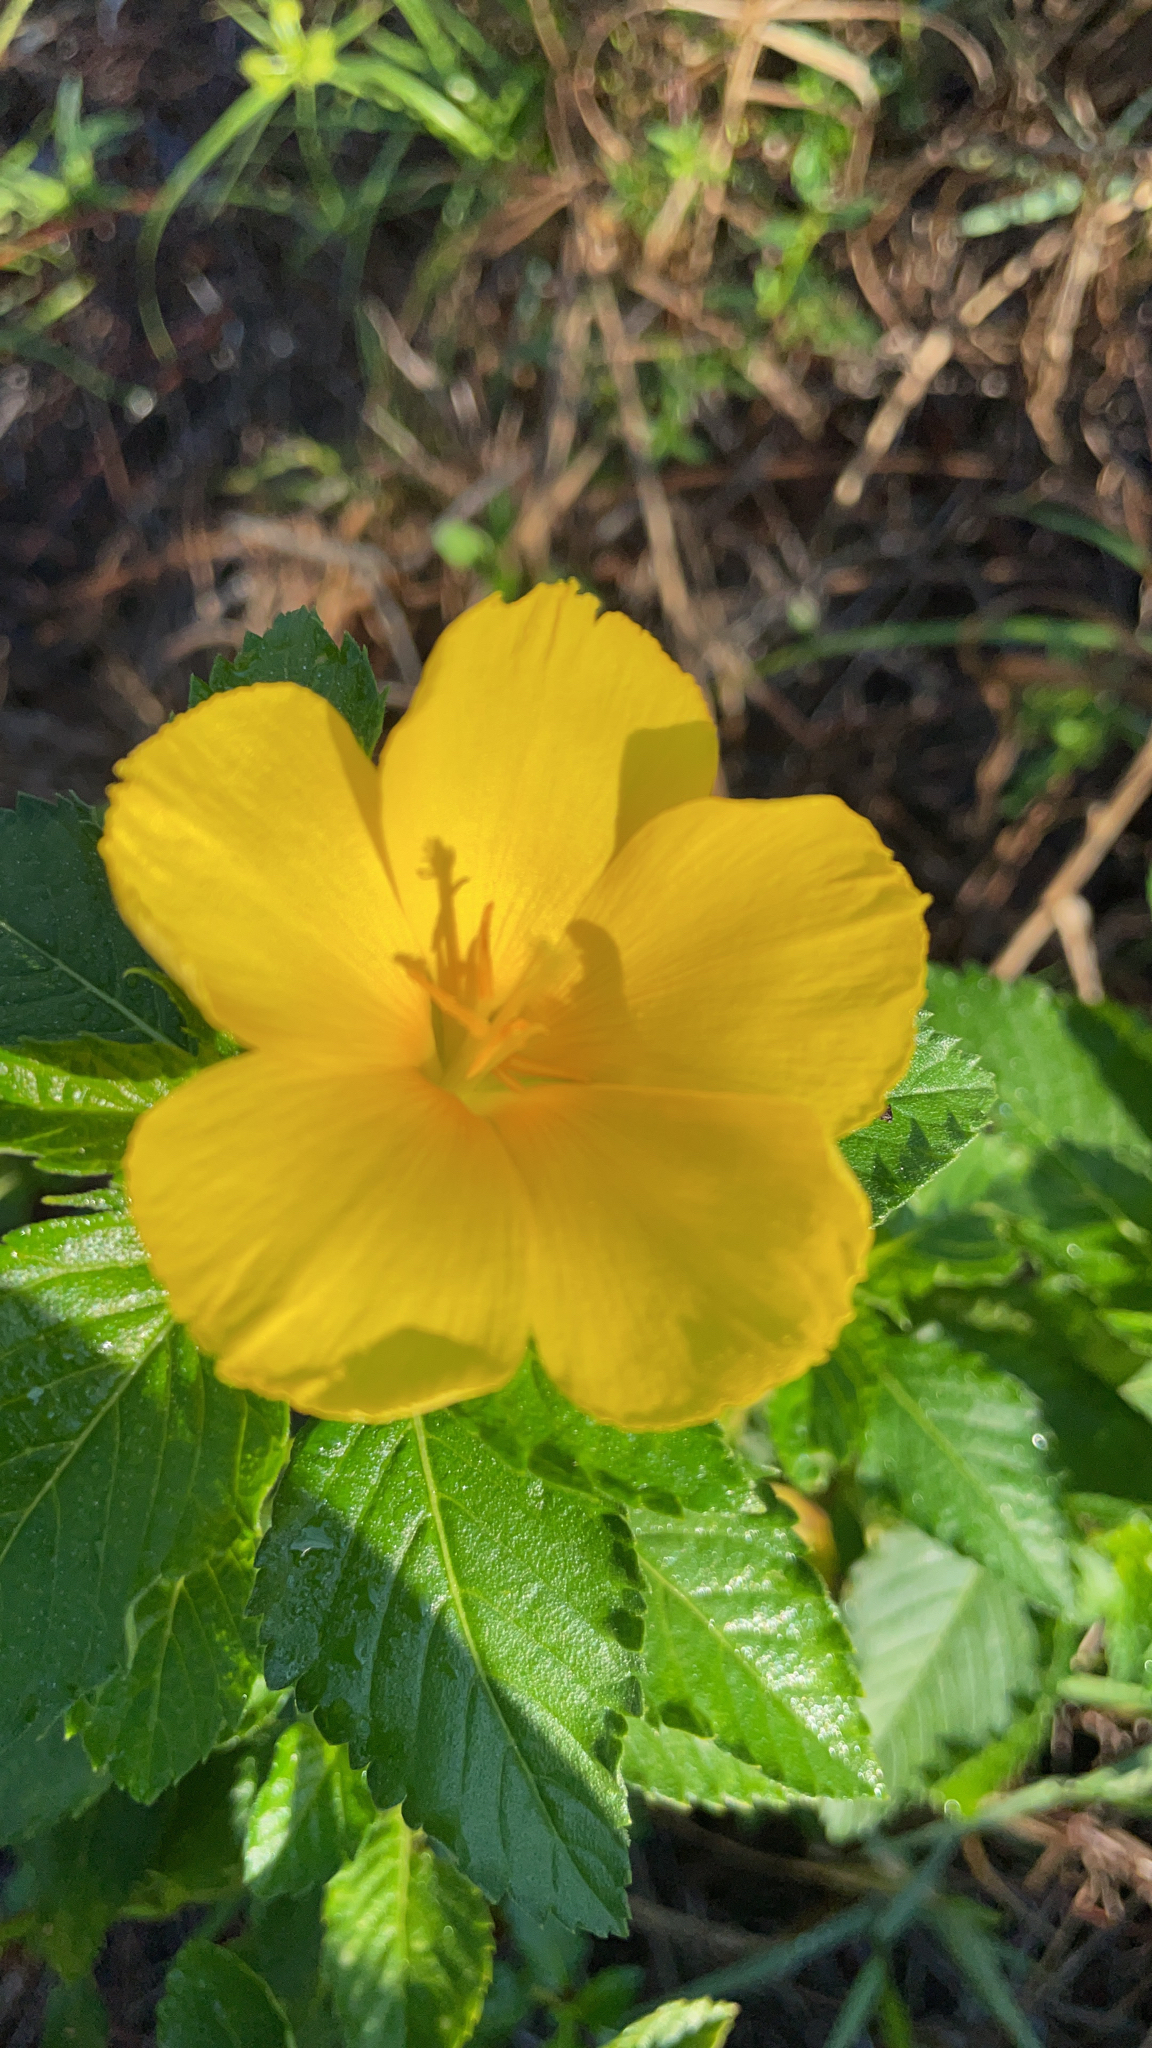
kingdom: Plantae
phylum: Tracheophyta
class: Magnoliopsida
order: Malpighiales
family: Turneraceae
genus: Turnera
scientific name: Turnera ulmifolia
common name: Ramgoat dashalong
